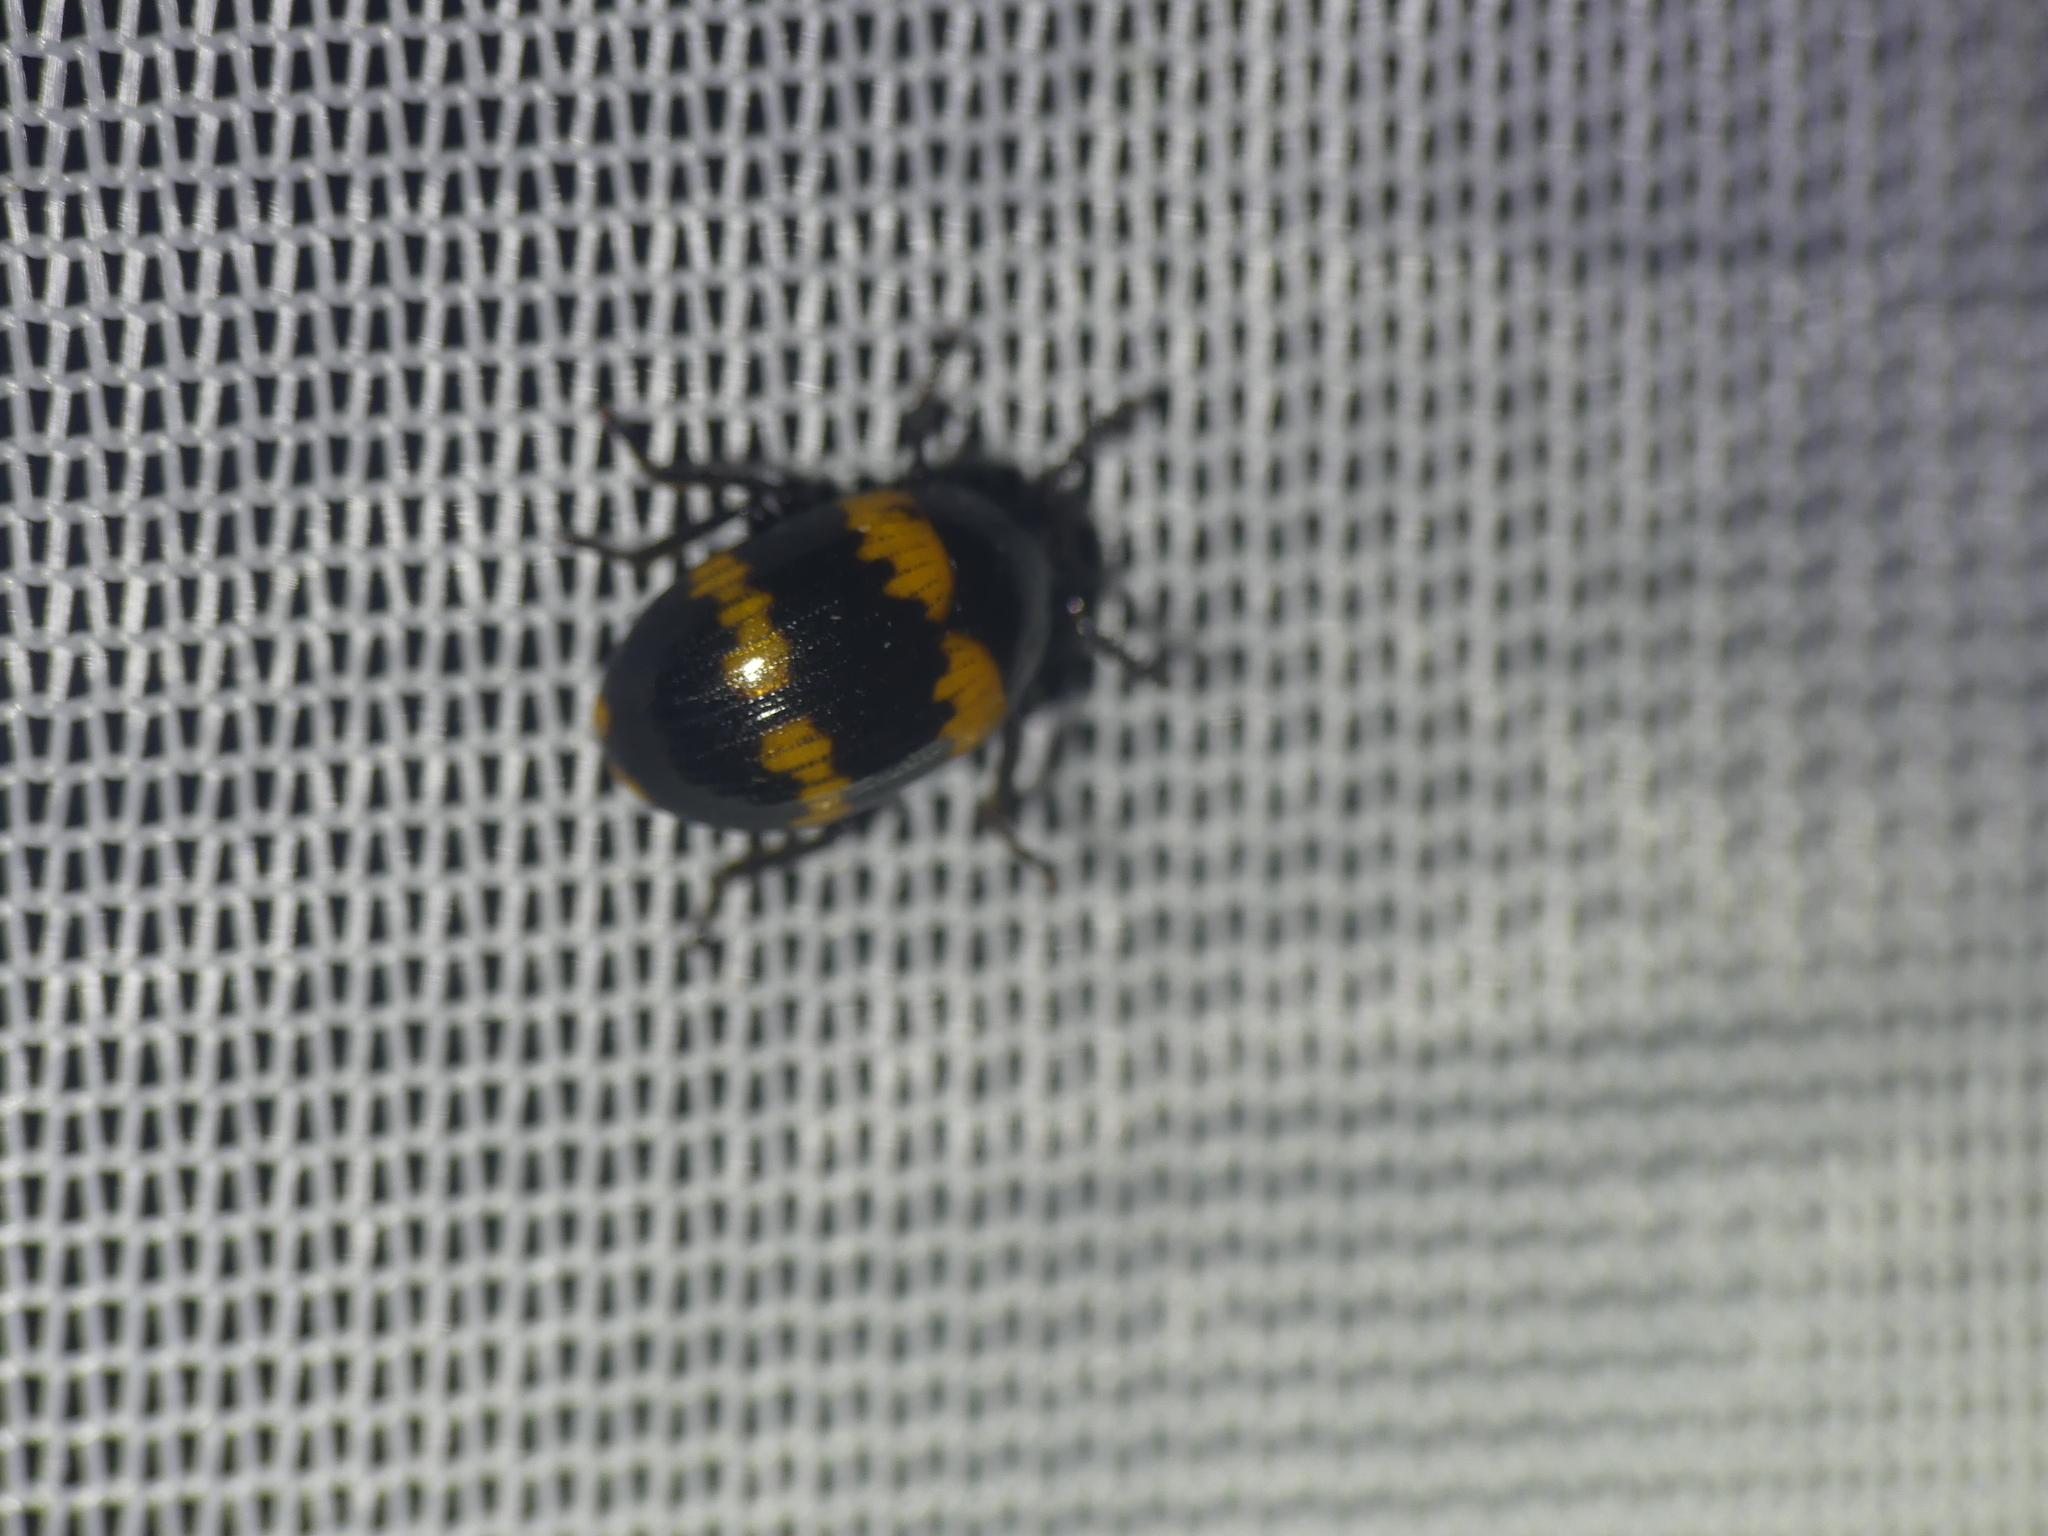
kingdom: Animalia
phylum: Arthropoda
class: Insecta
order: Coleoptera
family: Tenebrionidae
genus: Diaperis
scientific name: Diaperis boleti
